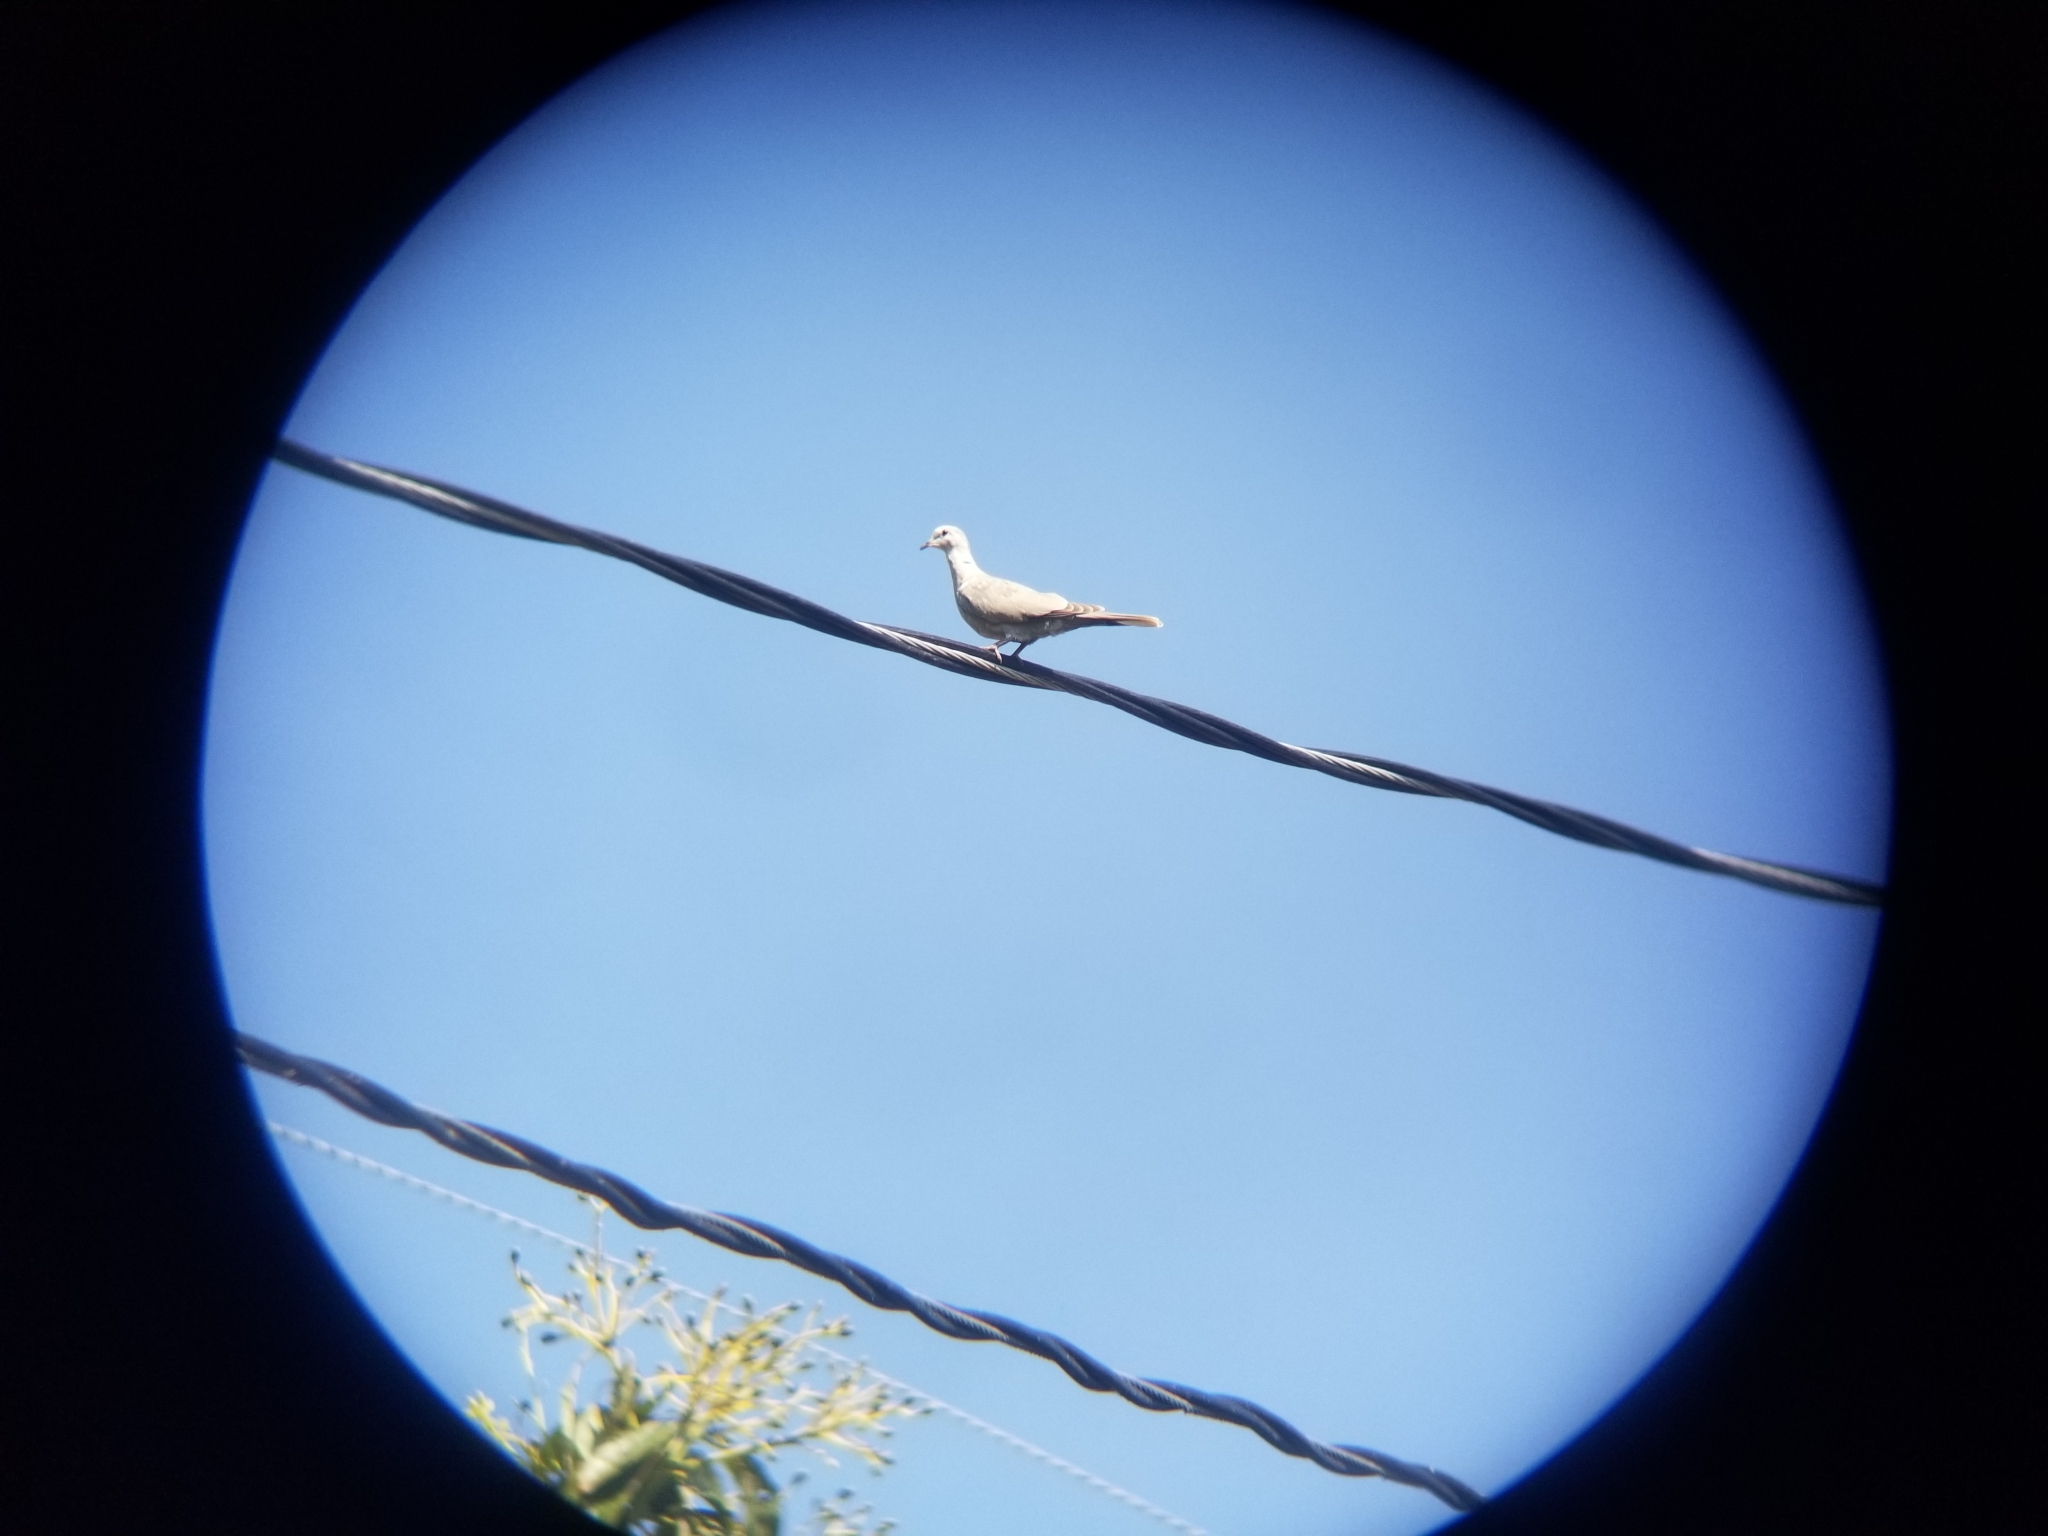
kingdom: Animalia
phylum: Chordata
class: Aves
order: Columbiformes
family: Columbidae
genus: Streptopelia
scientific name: Streptopelia decaocto
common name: Eurasian collared dove
